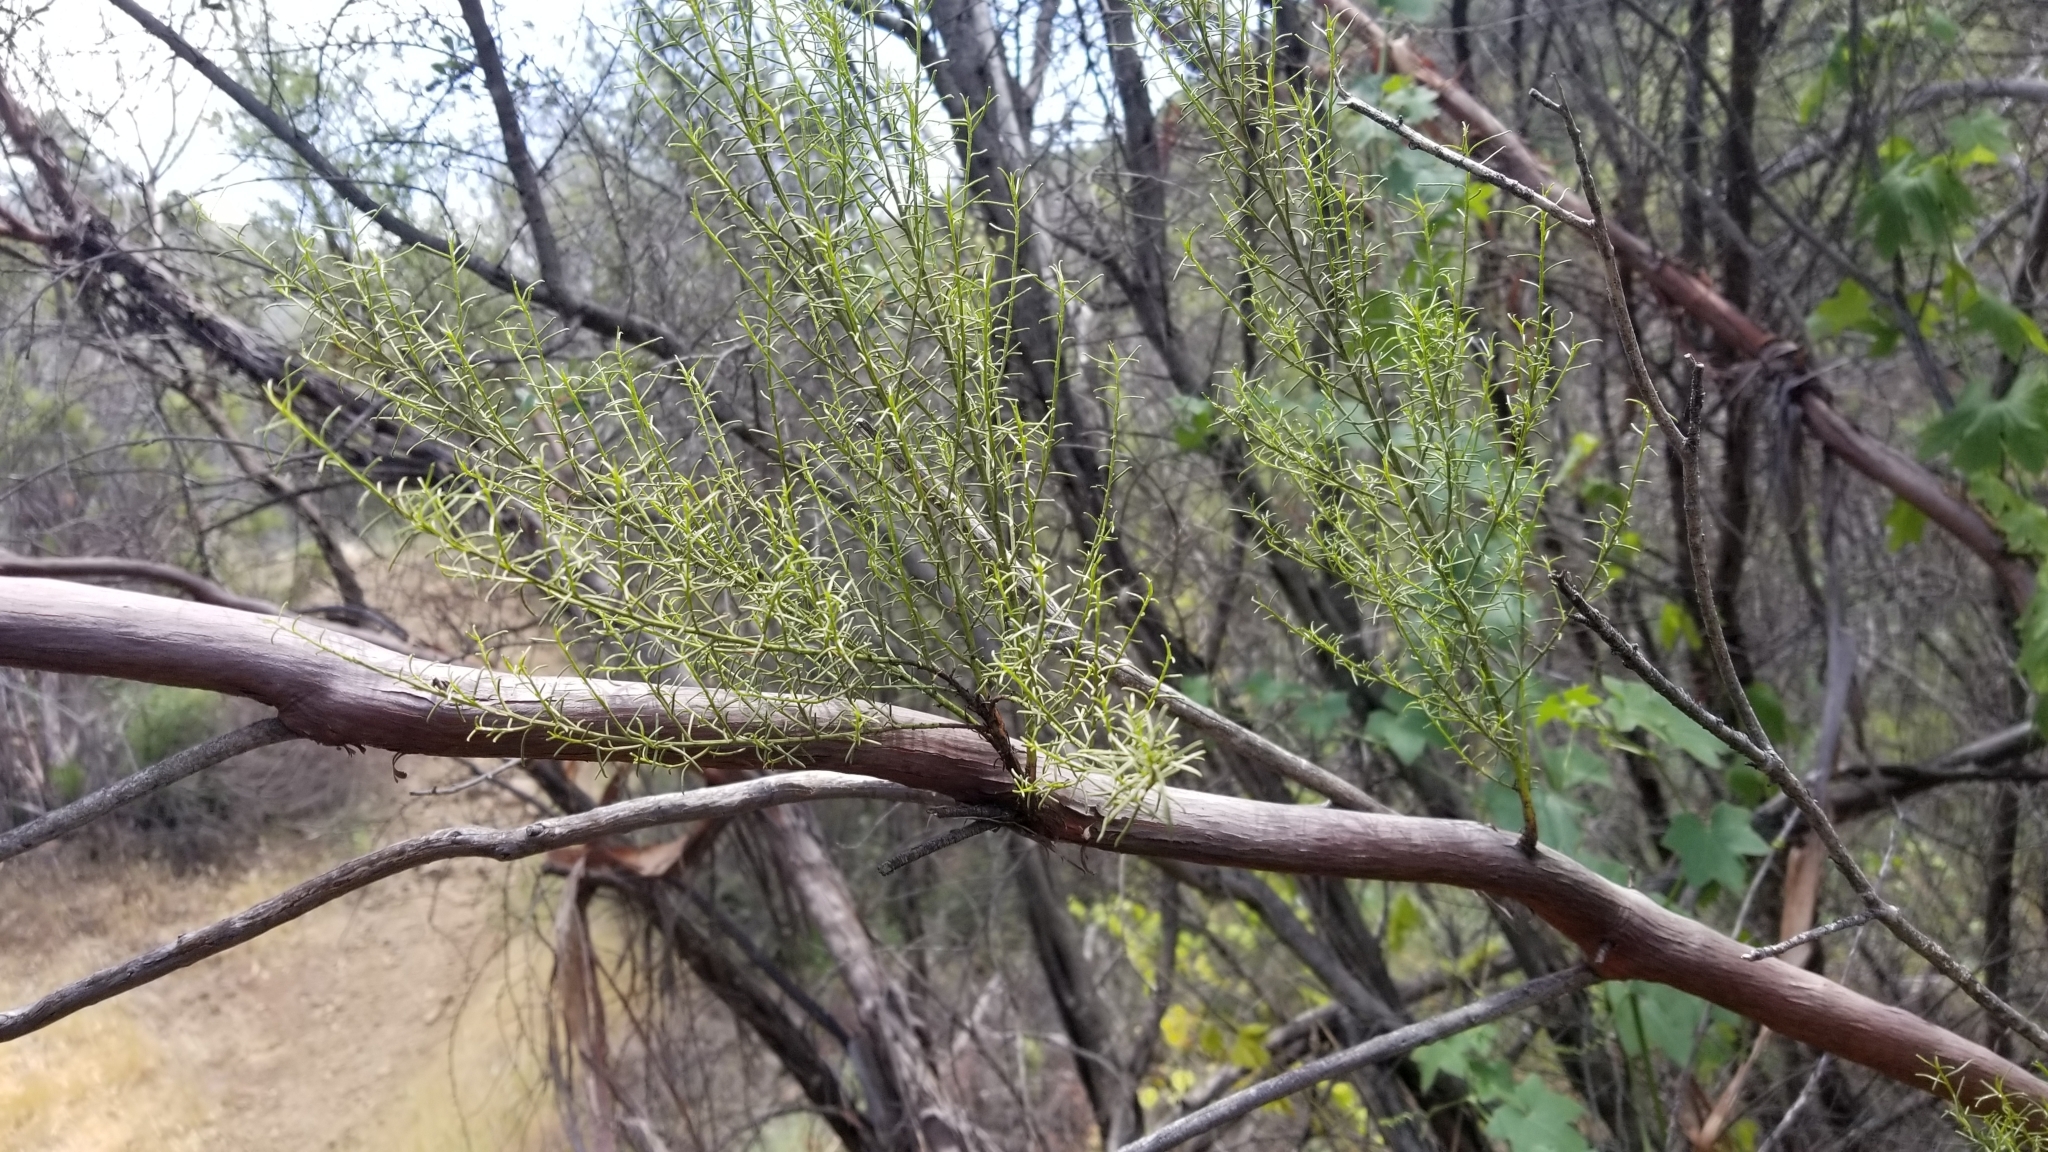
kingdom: Plantae
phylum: Tracheophyta
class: Magnoliopsida
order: Rosales
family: Rosaceae
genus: Adenostoma
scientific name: Adenostoma sparsifolium
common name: Red shank
